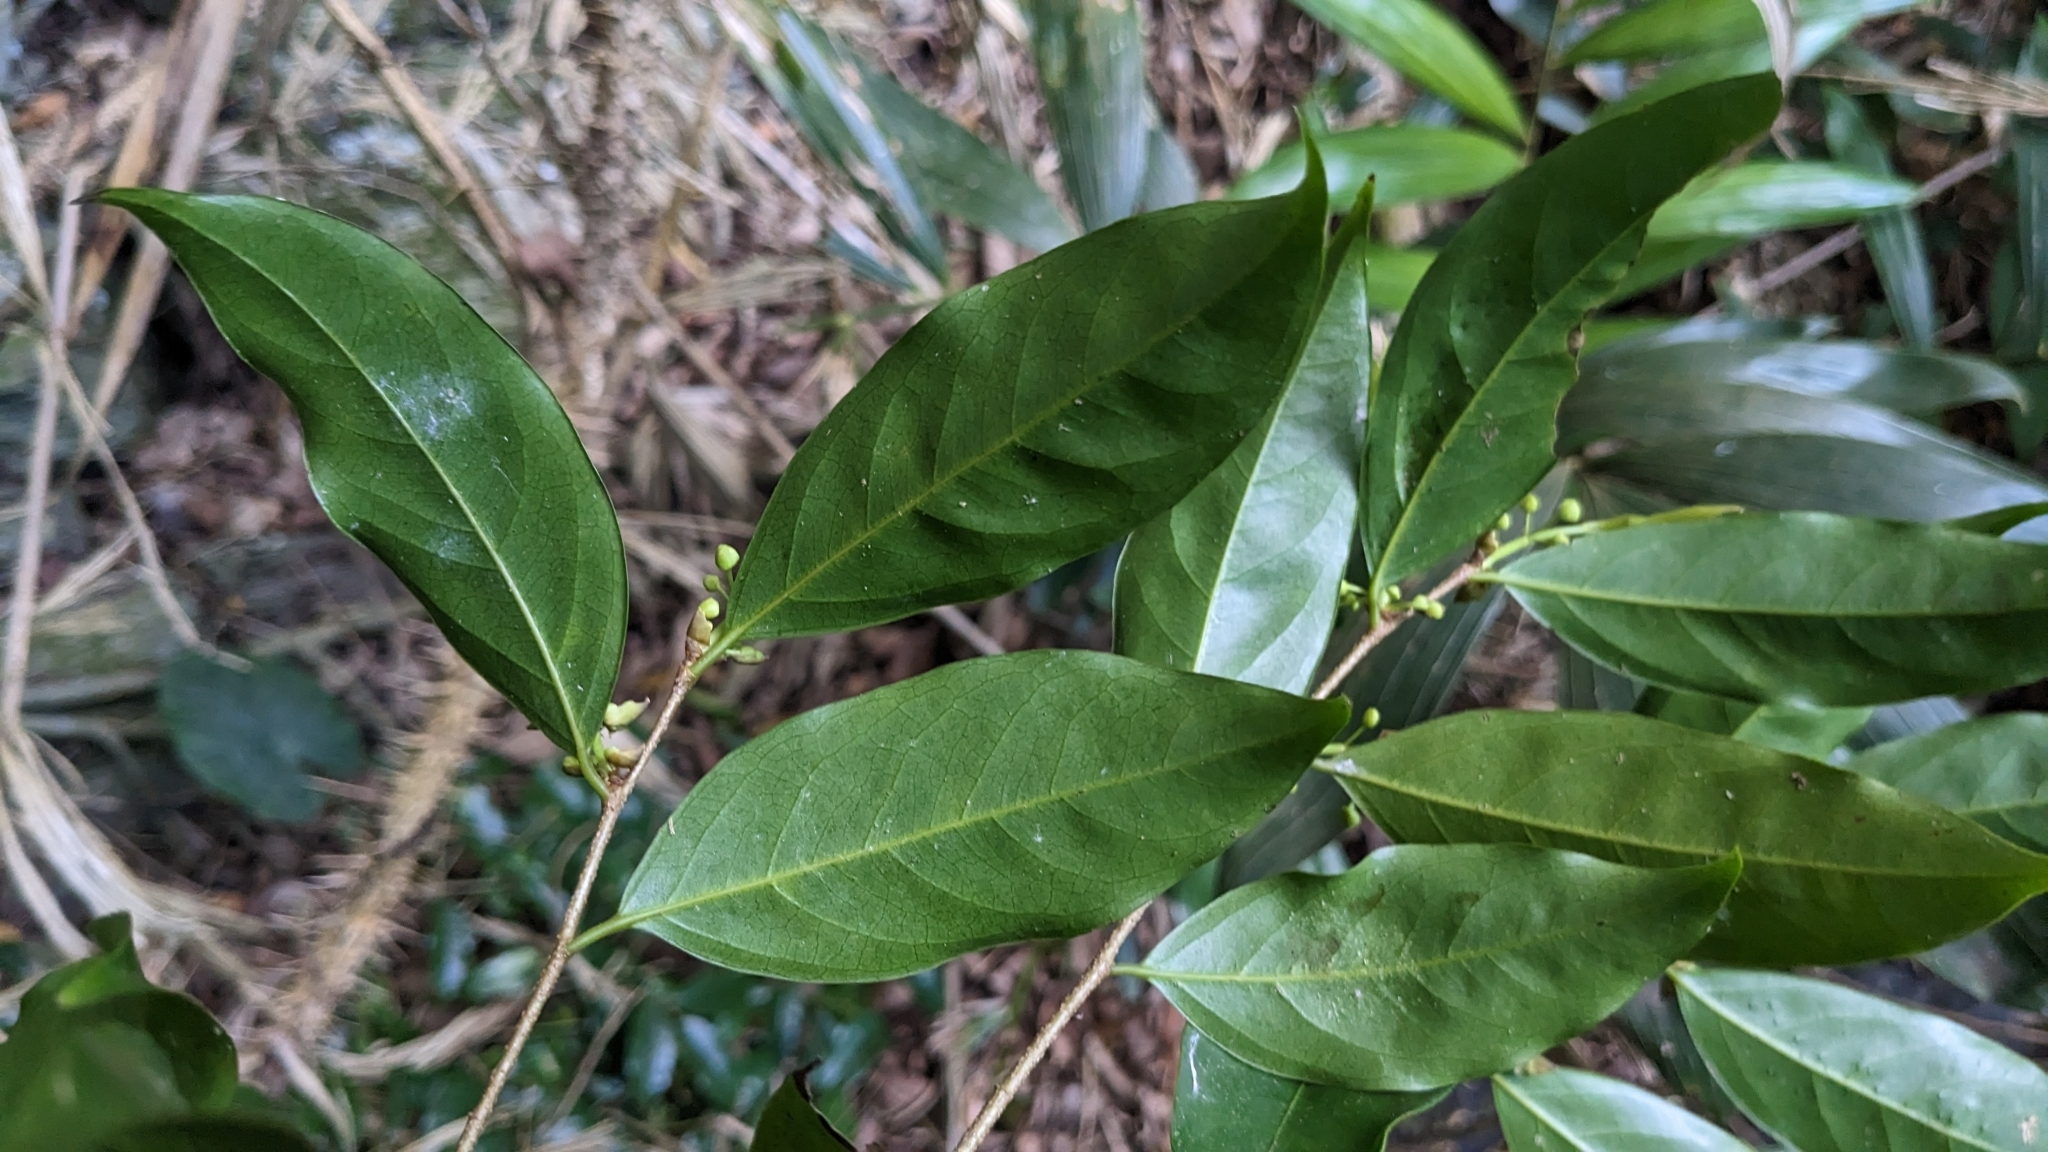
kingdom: Plantae
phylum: Tracheophyta
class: Magnoliopsida
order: Malpighiales
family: Putranjivaceae
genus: Drypetes
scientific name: Drypetes indica
